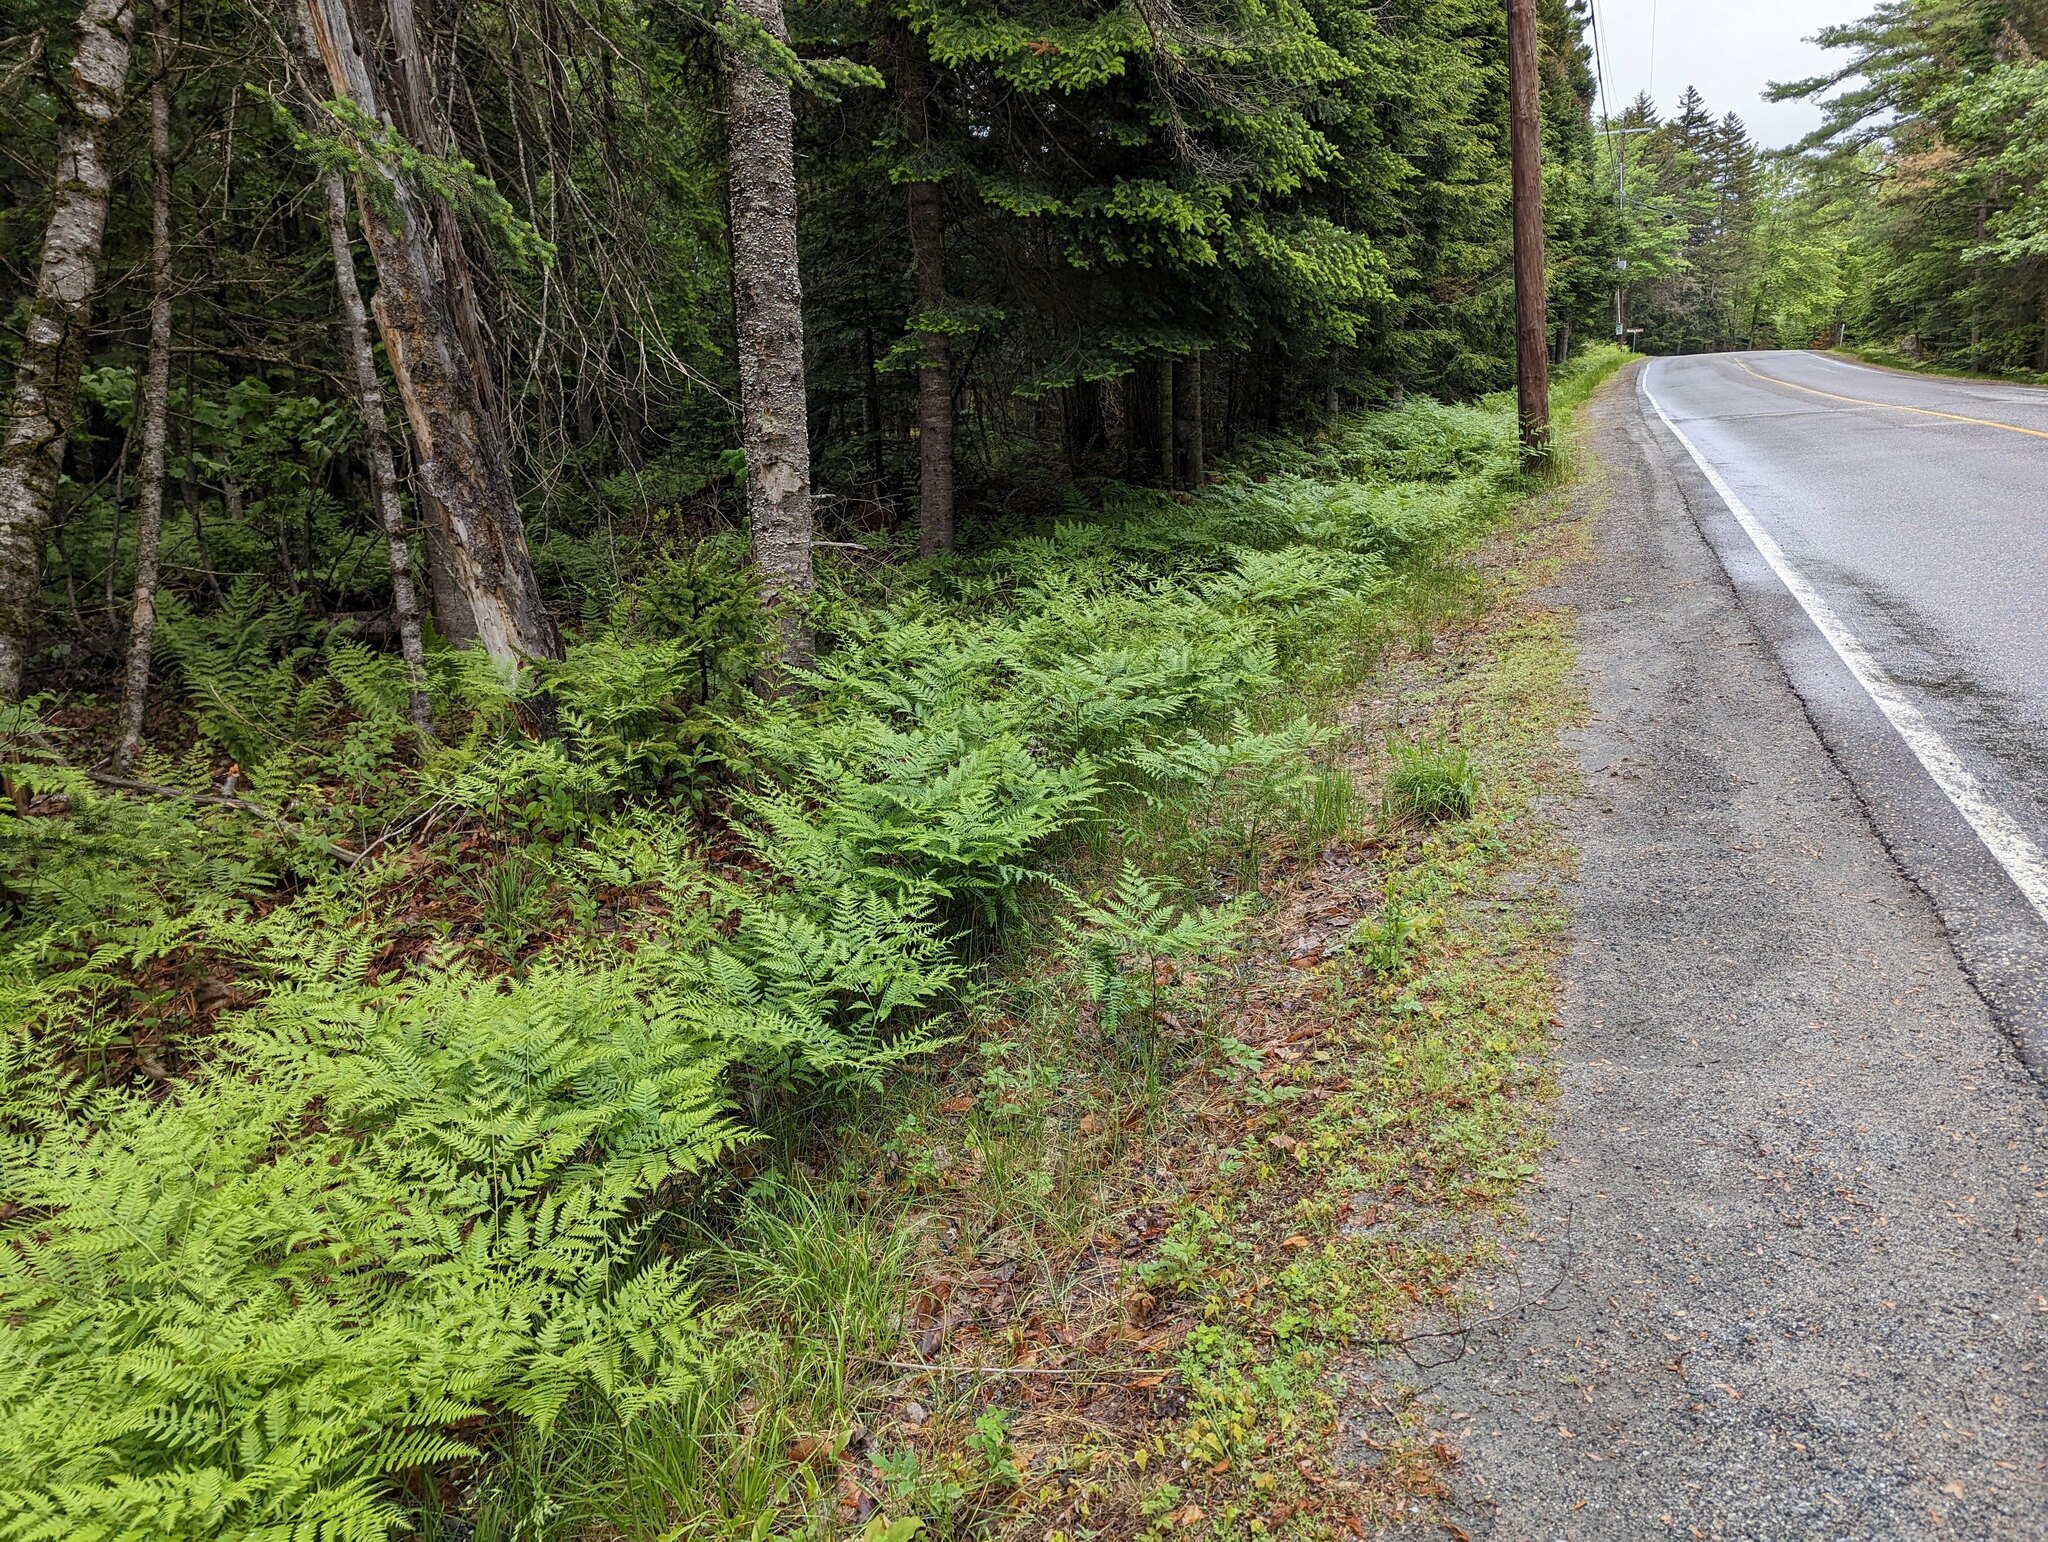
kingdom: Plantae
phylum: Tracheophyta
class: Polypodiopsida
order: Polypodiales
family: Dennstaedtiaceae
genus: Pteridium
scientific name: Pteridium aquilinum
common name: Bracken
